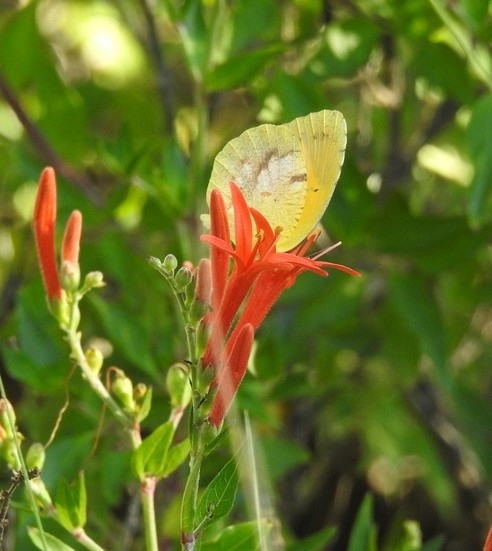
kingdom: Animalia
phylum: Arthropoda
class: Insecta
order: Lepidoptera
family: Pieridae
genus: Abaeis
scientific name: Abaeis nicippe
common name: Sleepy orange
